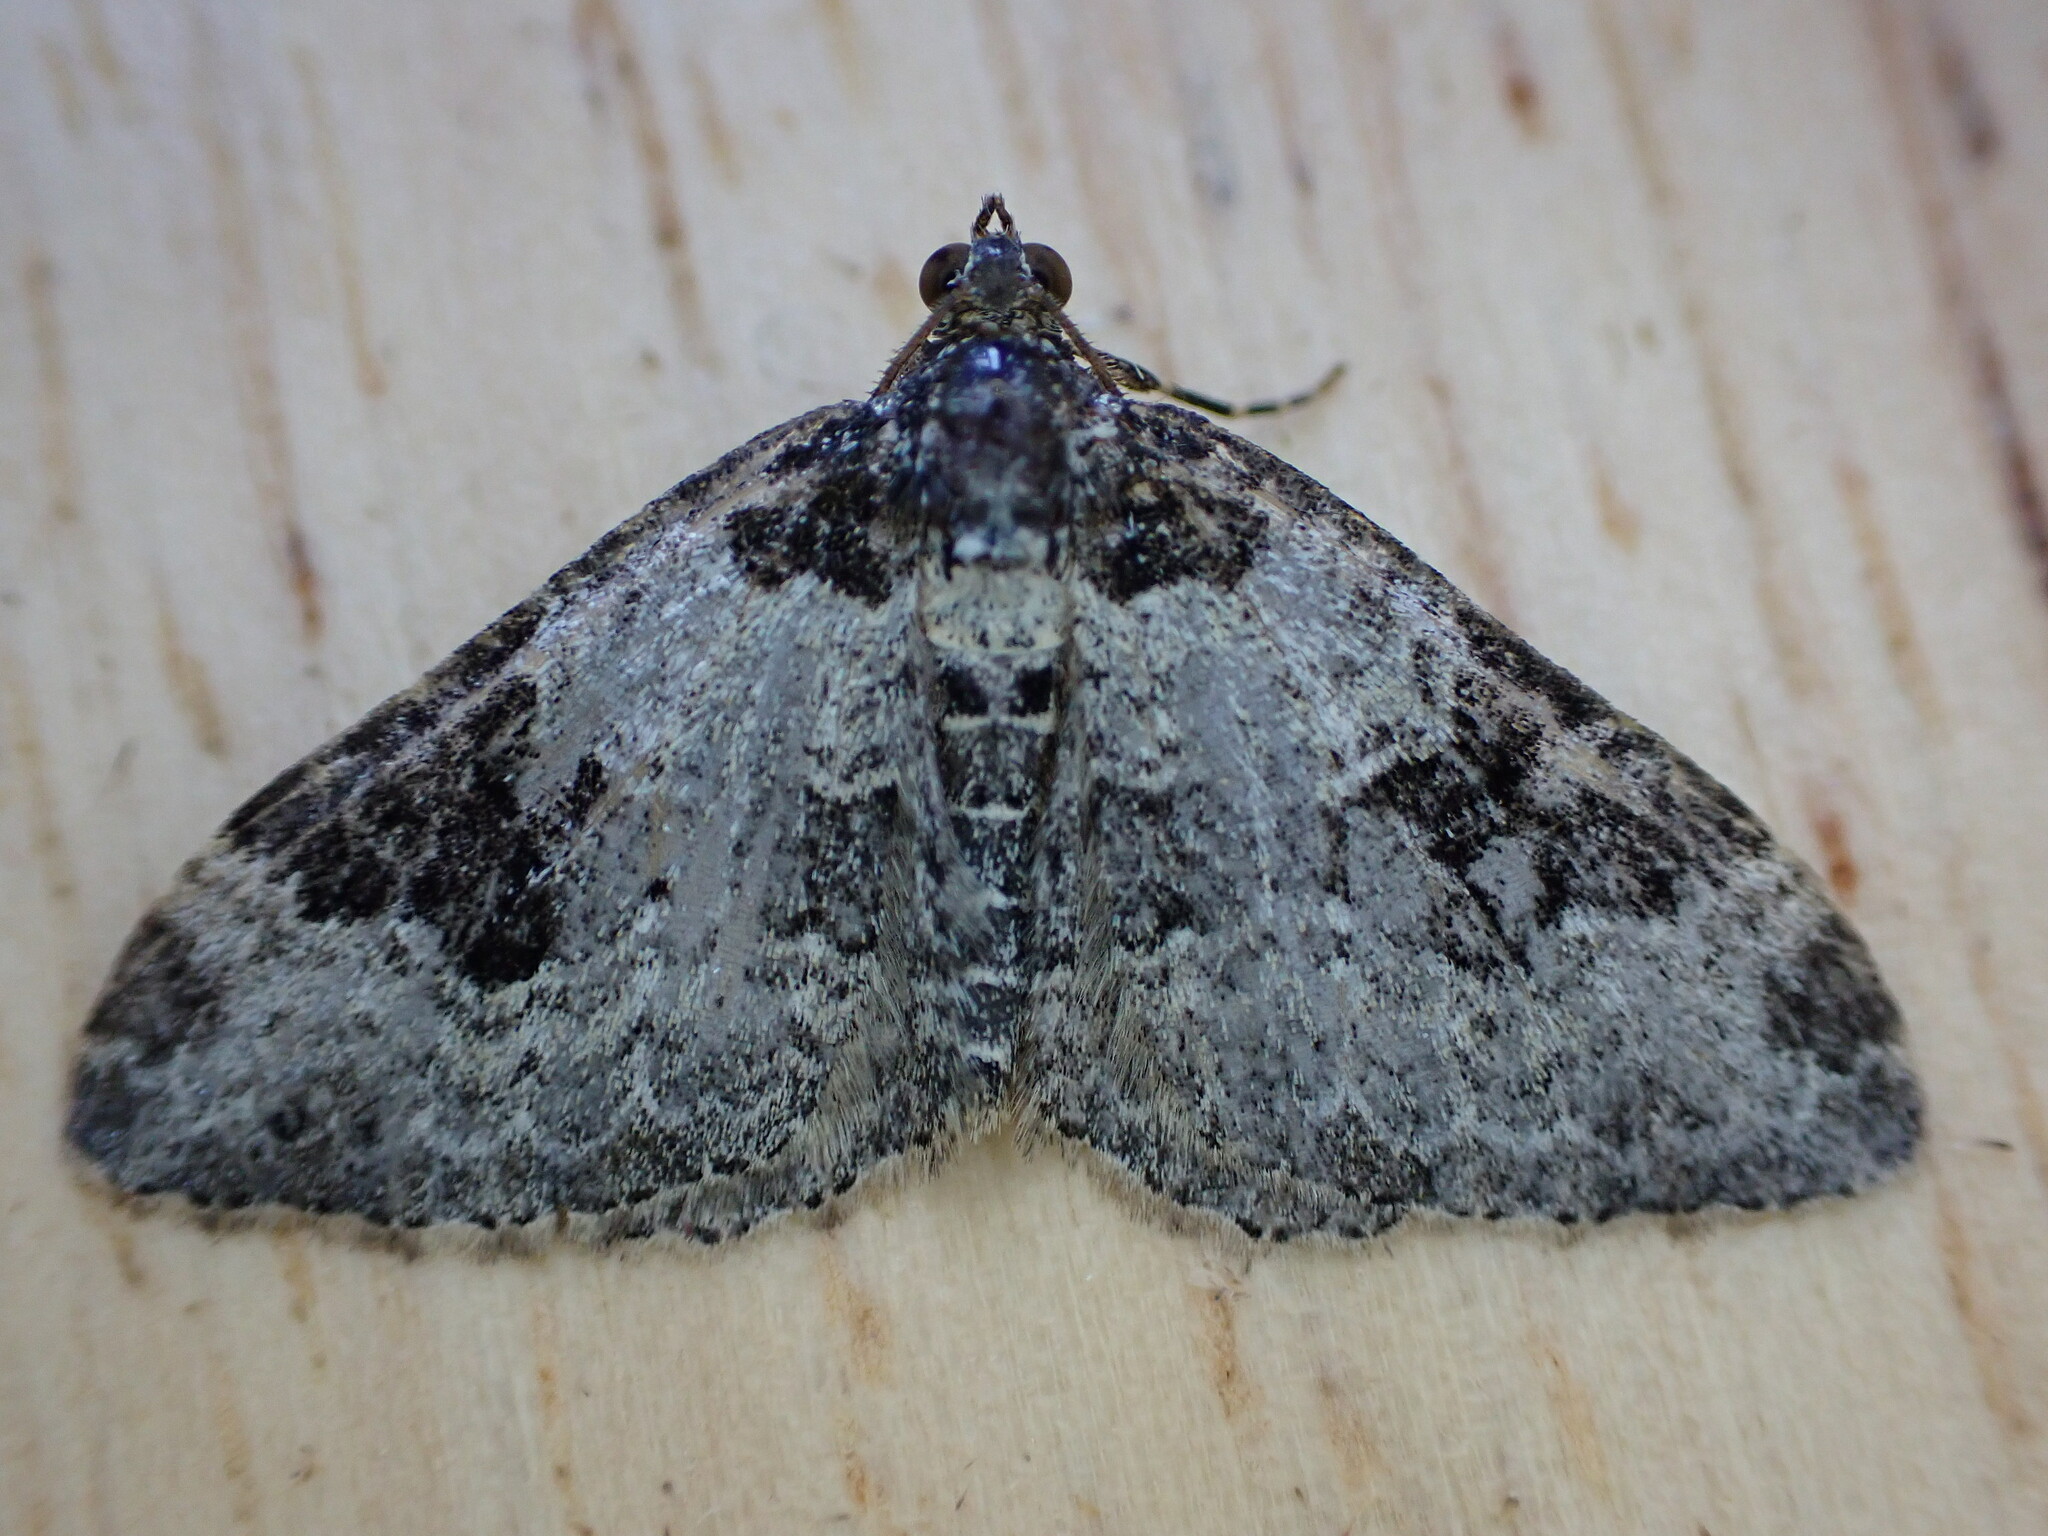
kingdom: Animalia
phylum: Arthropoda
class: Insecta
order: Lepidoptera
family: Geometridae
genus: Xanthorhoe
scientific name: Xanthorhoe fluctuata
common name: Garden carpet
